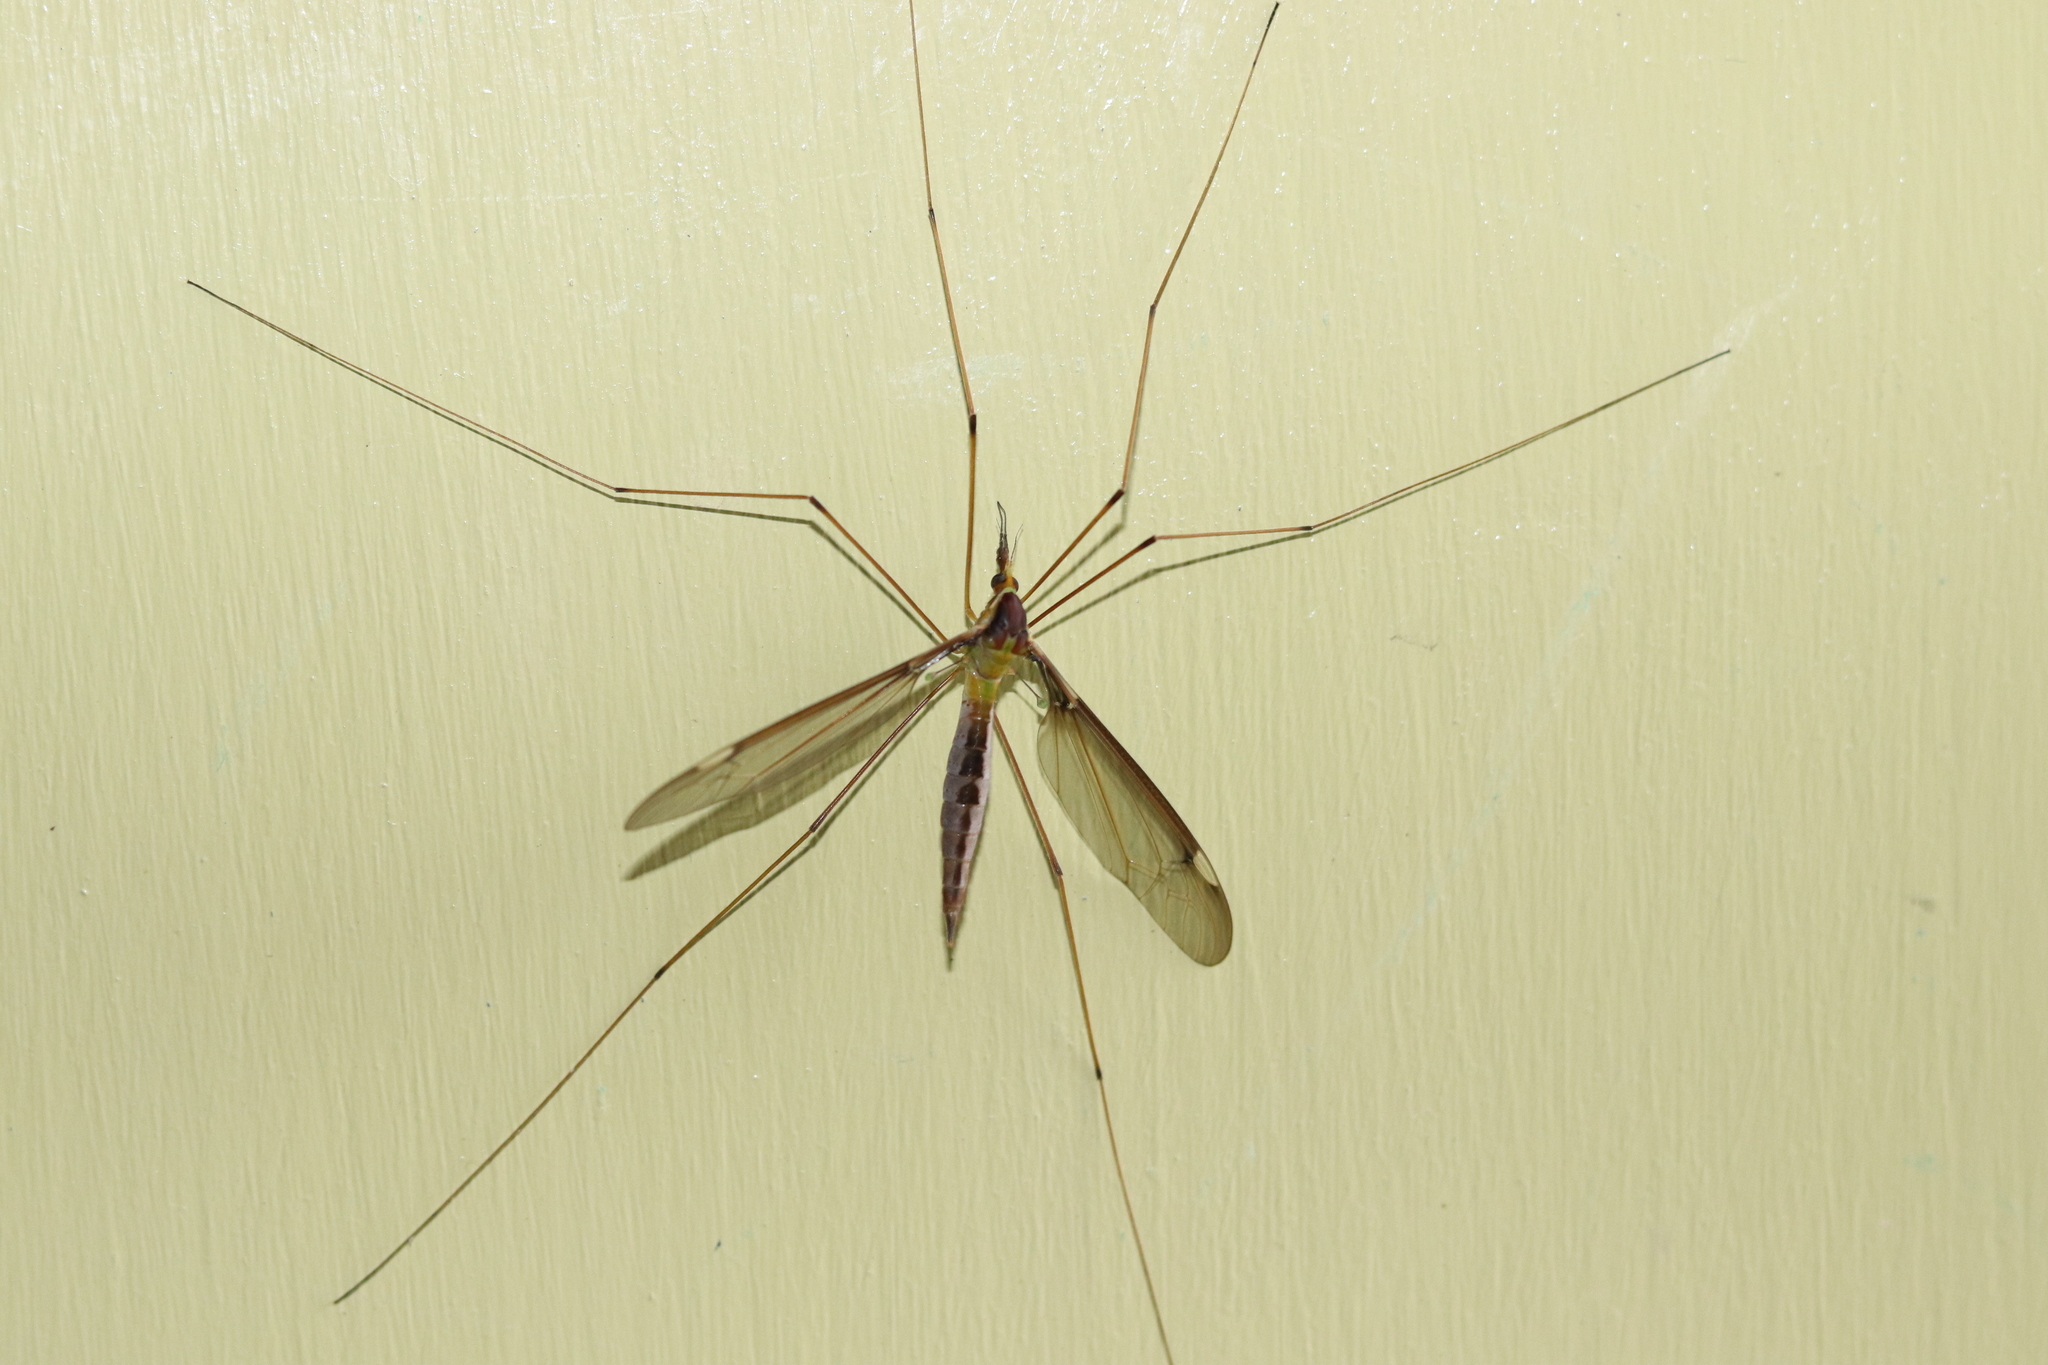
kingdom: Animalia
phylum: Arthropoda
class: Insecta
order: Diptera
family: Tipulidae
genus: Leptotarsus
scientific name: Leptotarsus albistigma
